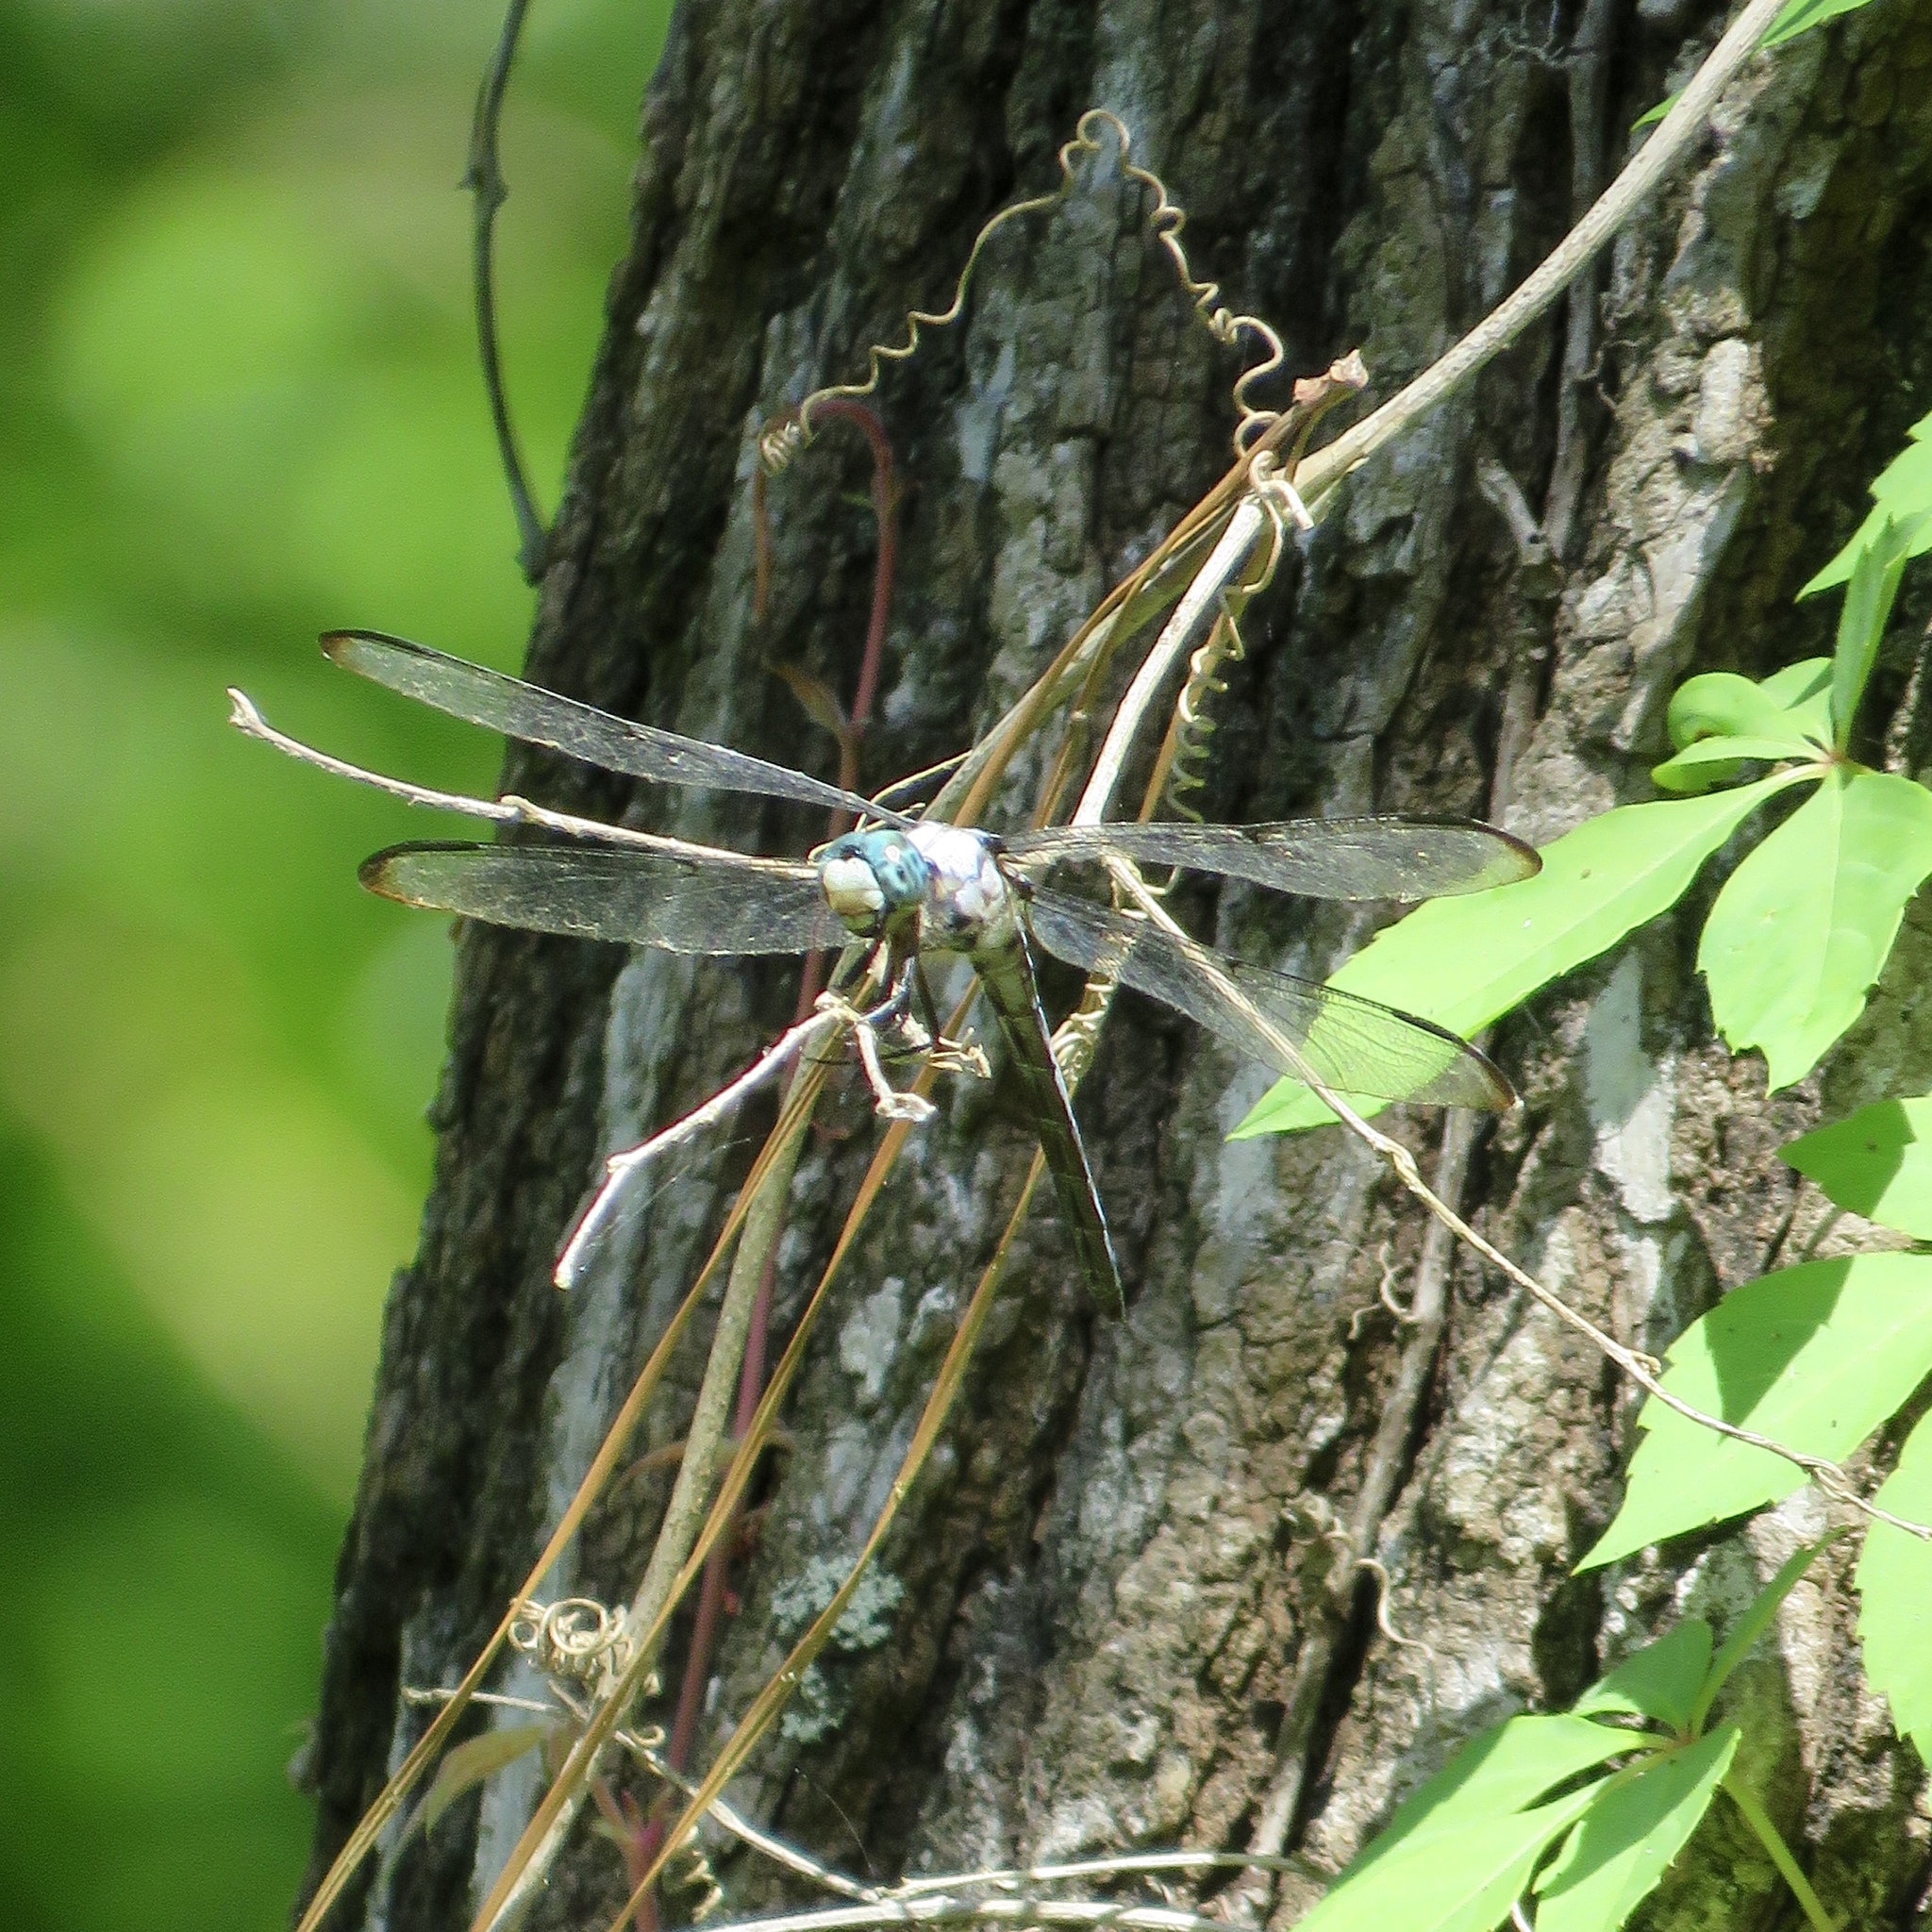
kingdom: Animalia
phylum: Arthropoda
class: Insecta
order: Odonata
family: Libellulidae
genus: Libellula
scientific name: Libellula vibrans
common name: Great blue skimmer
